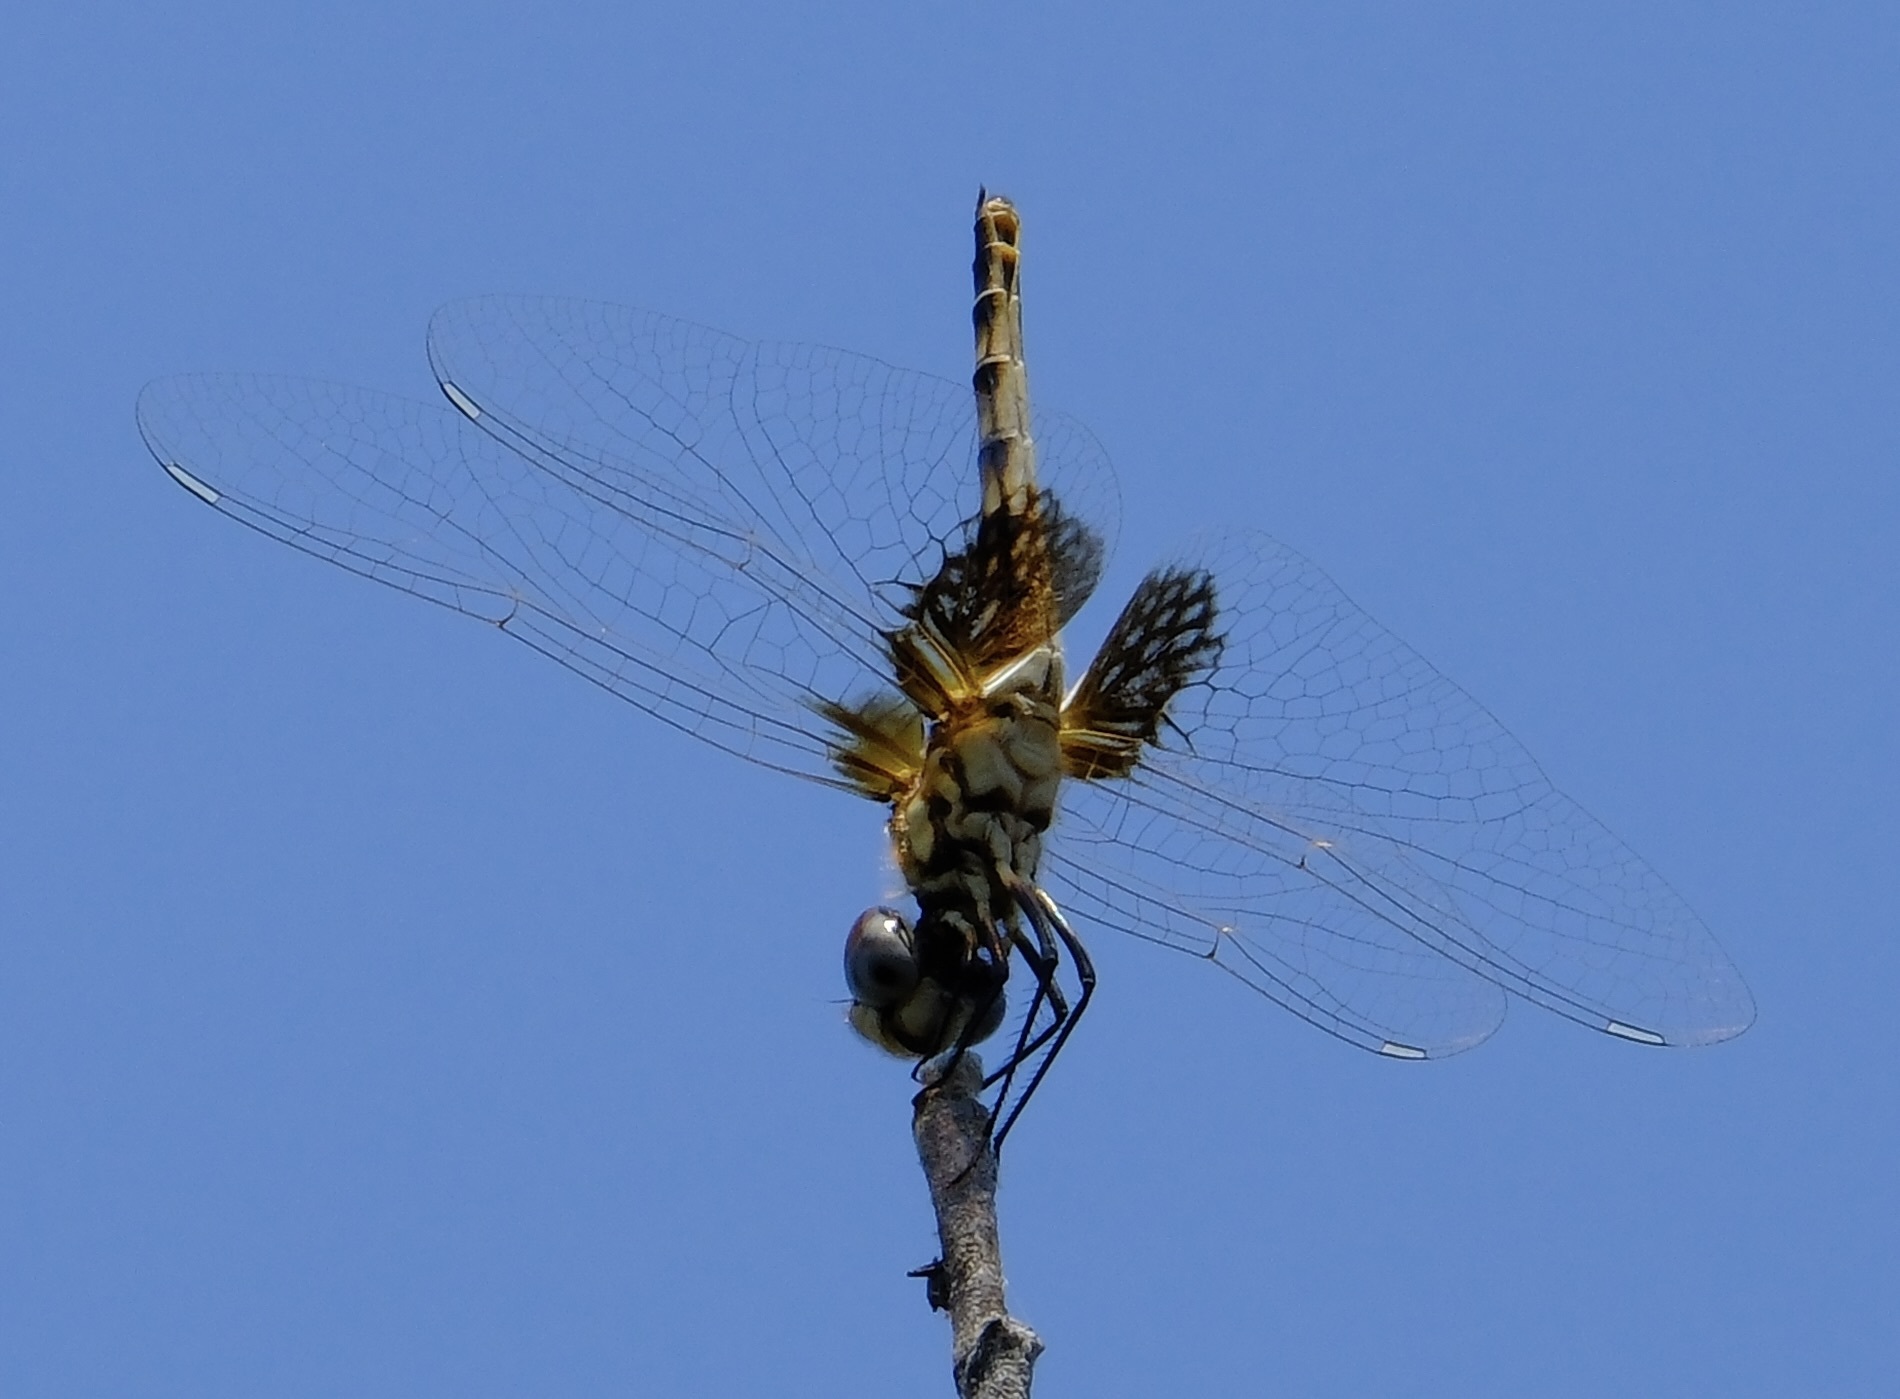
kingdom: Animalia
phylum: Arthropoda
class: Insecta
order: Odonata
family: Libellulidae
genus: Macrodiplax
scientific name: Macrodiplax balteata
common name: Marl pennant
